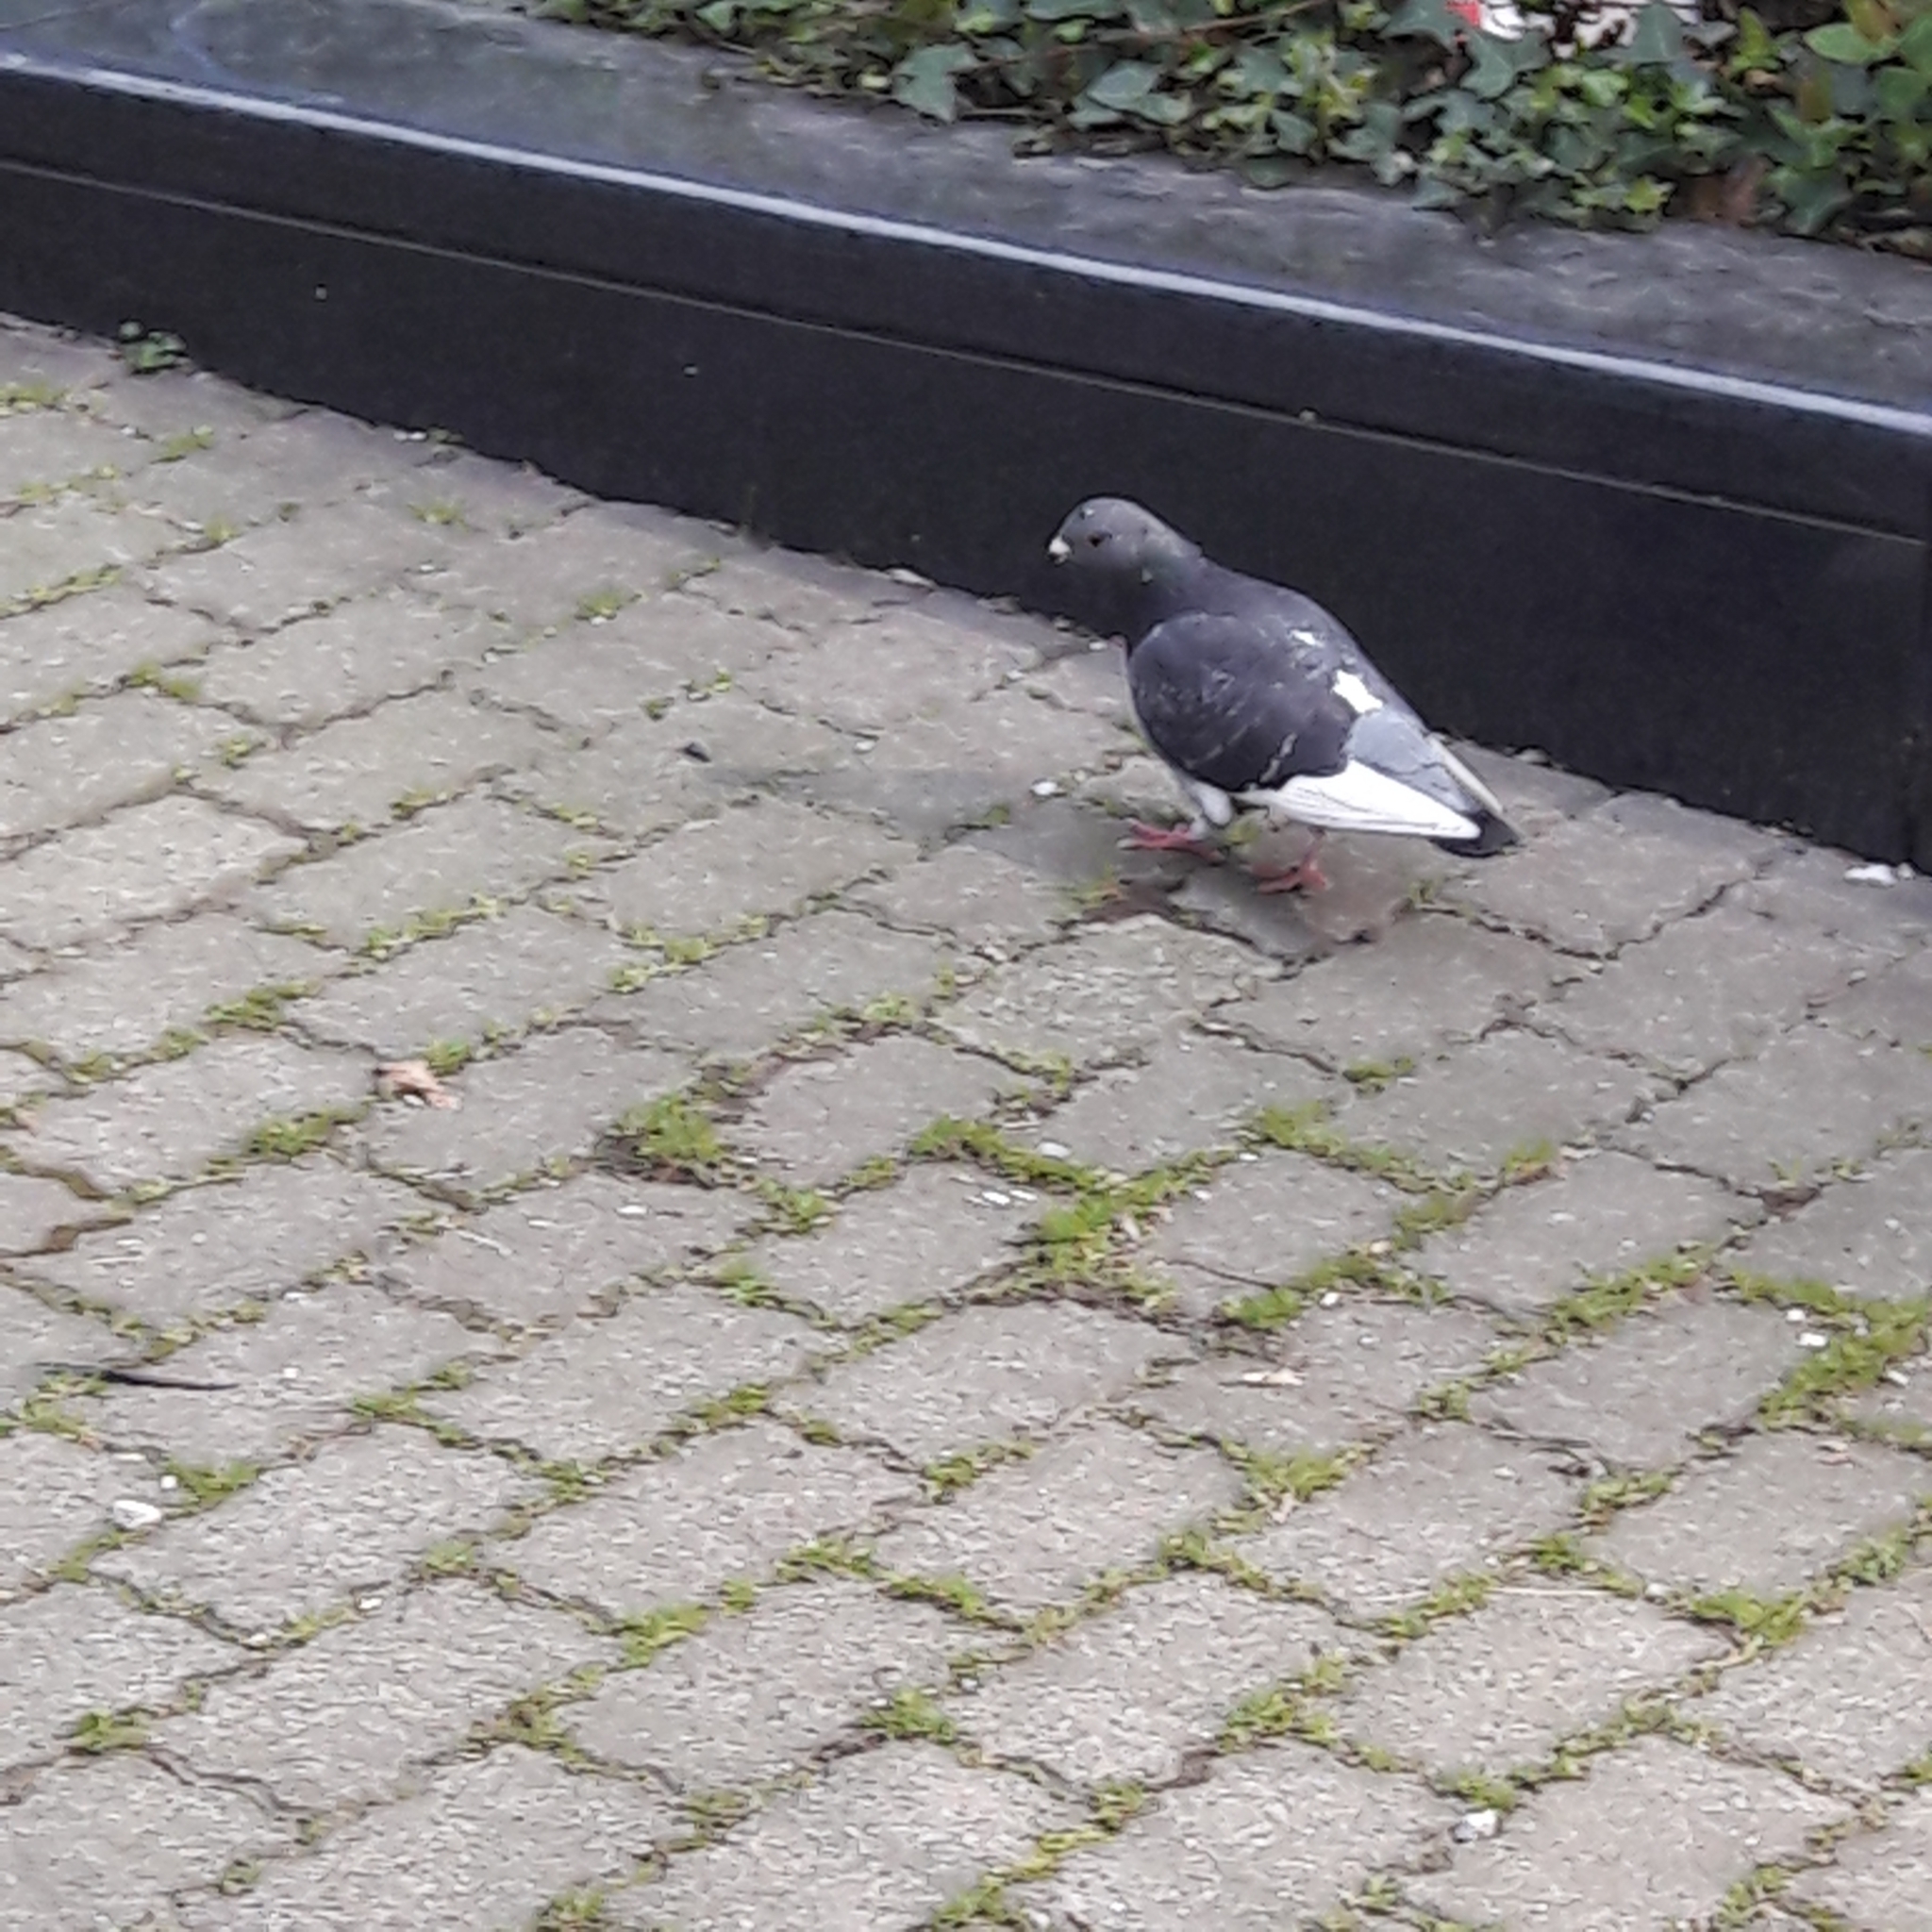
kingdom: Animalia
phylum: Chordata
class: Aves
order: Columbiformes
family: Columbidae
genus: Columba
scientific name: Columba livia
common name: Rock pigeon
